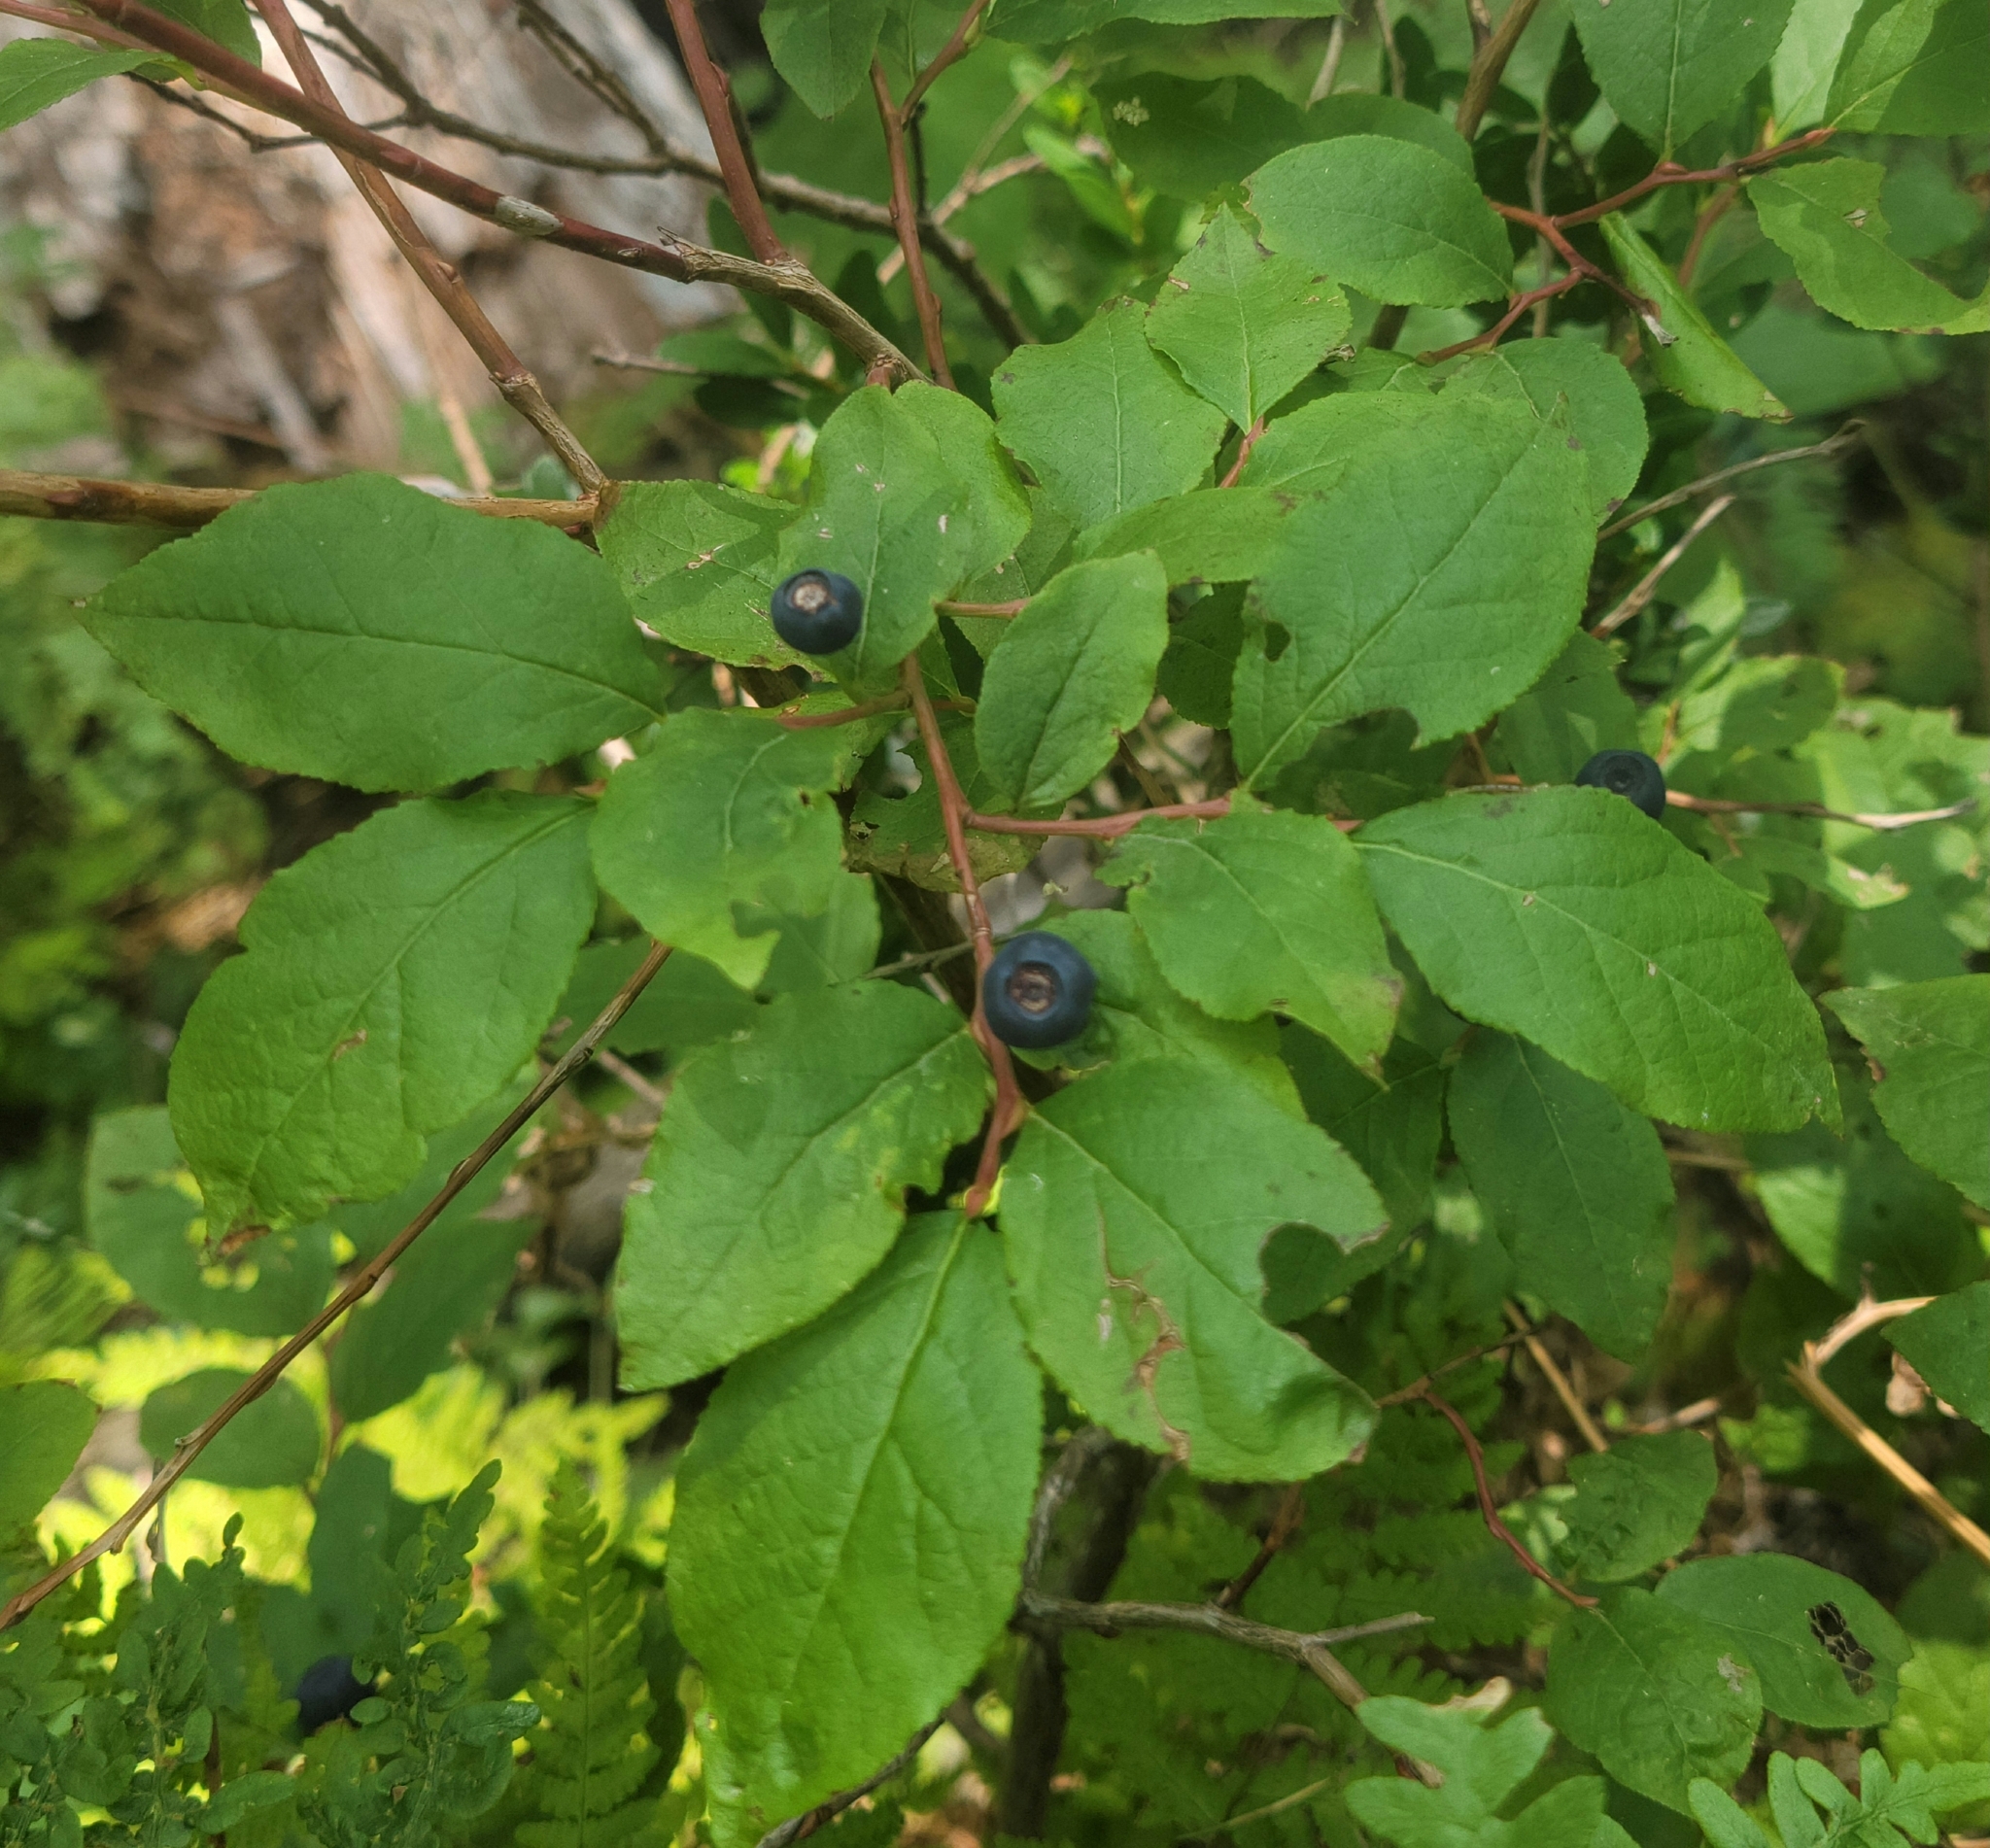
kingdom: Plantae
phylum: Tracheophyta
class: Magnoliopsida
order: Ericales
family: Ericaceae
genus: Vaccinium
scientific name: Vaccinium membranaceum
